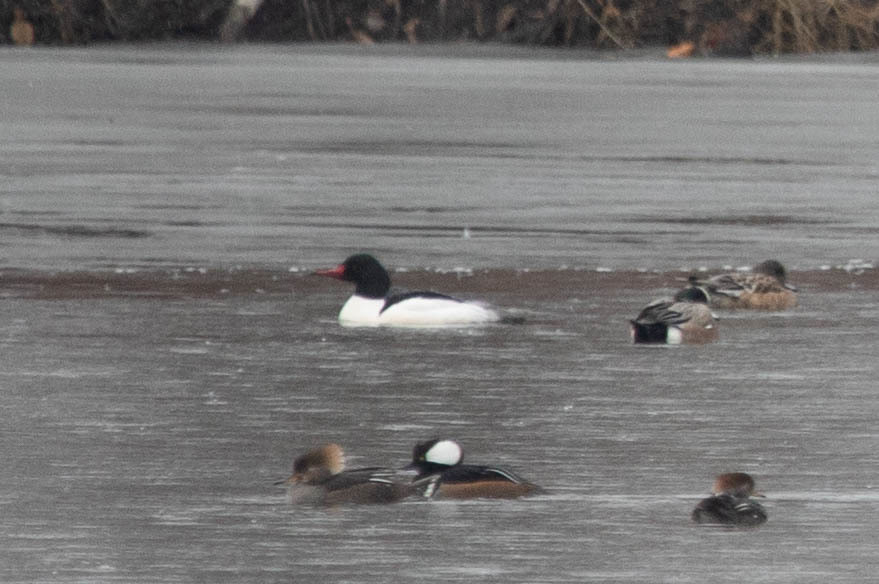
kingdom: Animalia
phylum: Chordata
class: Aves
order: Anseriformes
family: Anatidae
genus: Mergus
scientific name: Mergus merganser
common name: Common merganser
